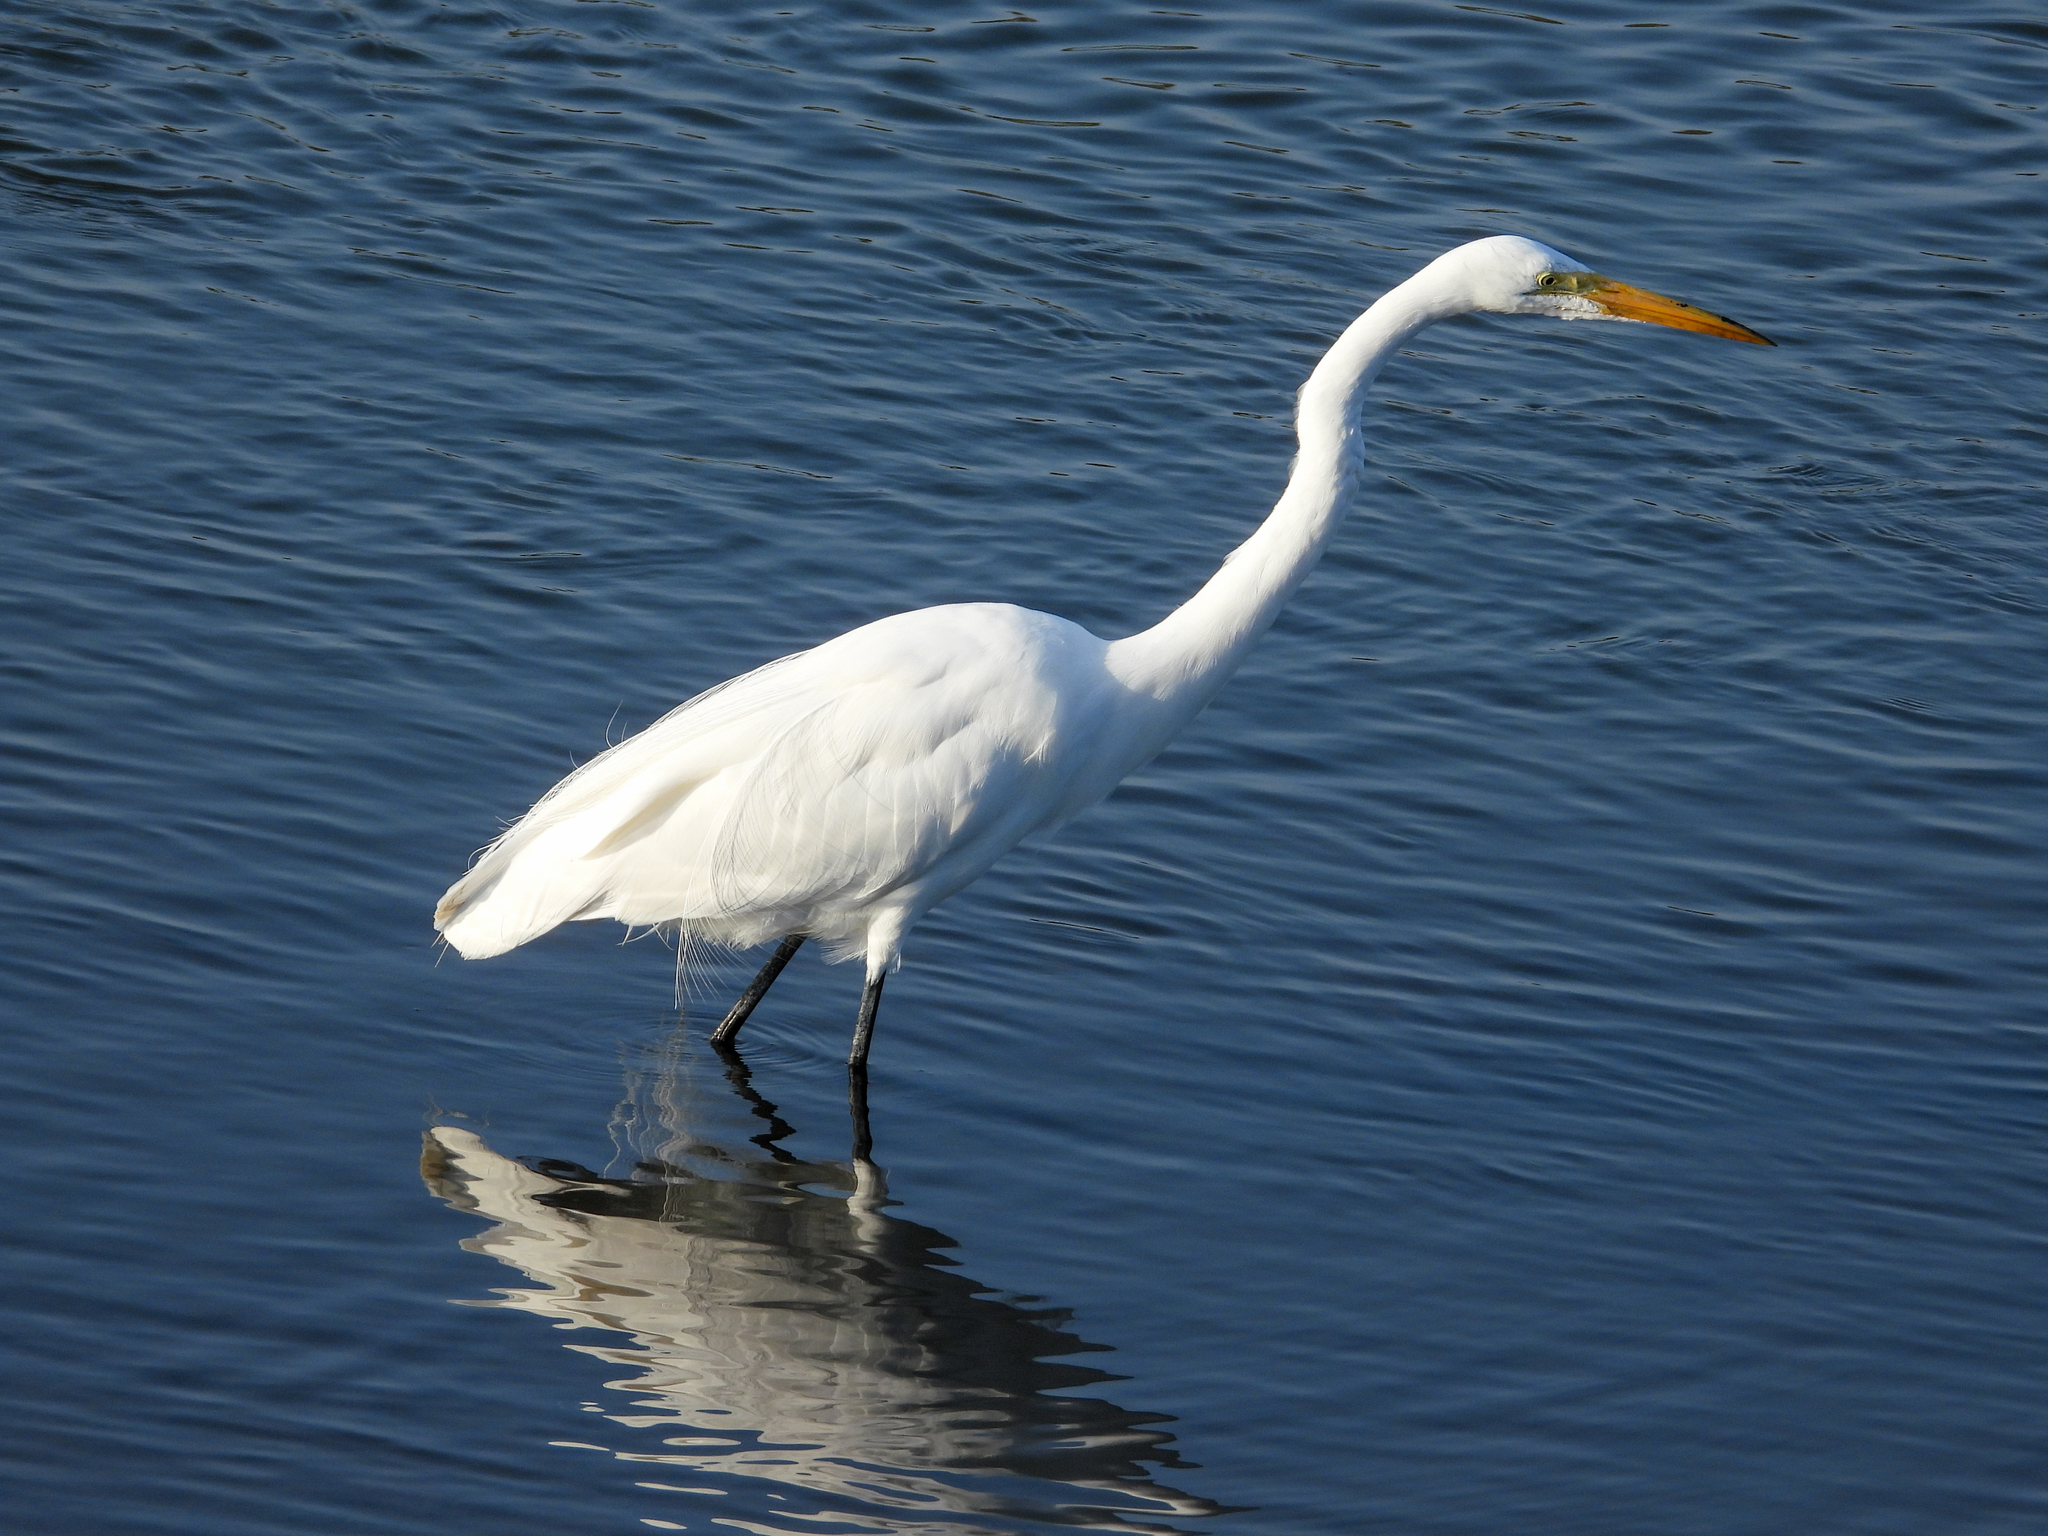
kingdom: Animalia
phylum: Chordata
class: Aves
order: Pelecaniformes
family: Ardeidae
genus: Ardea
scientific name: Ardea alba
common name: Great egret
